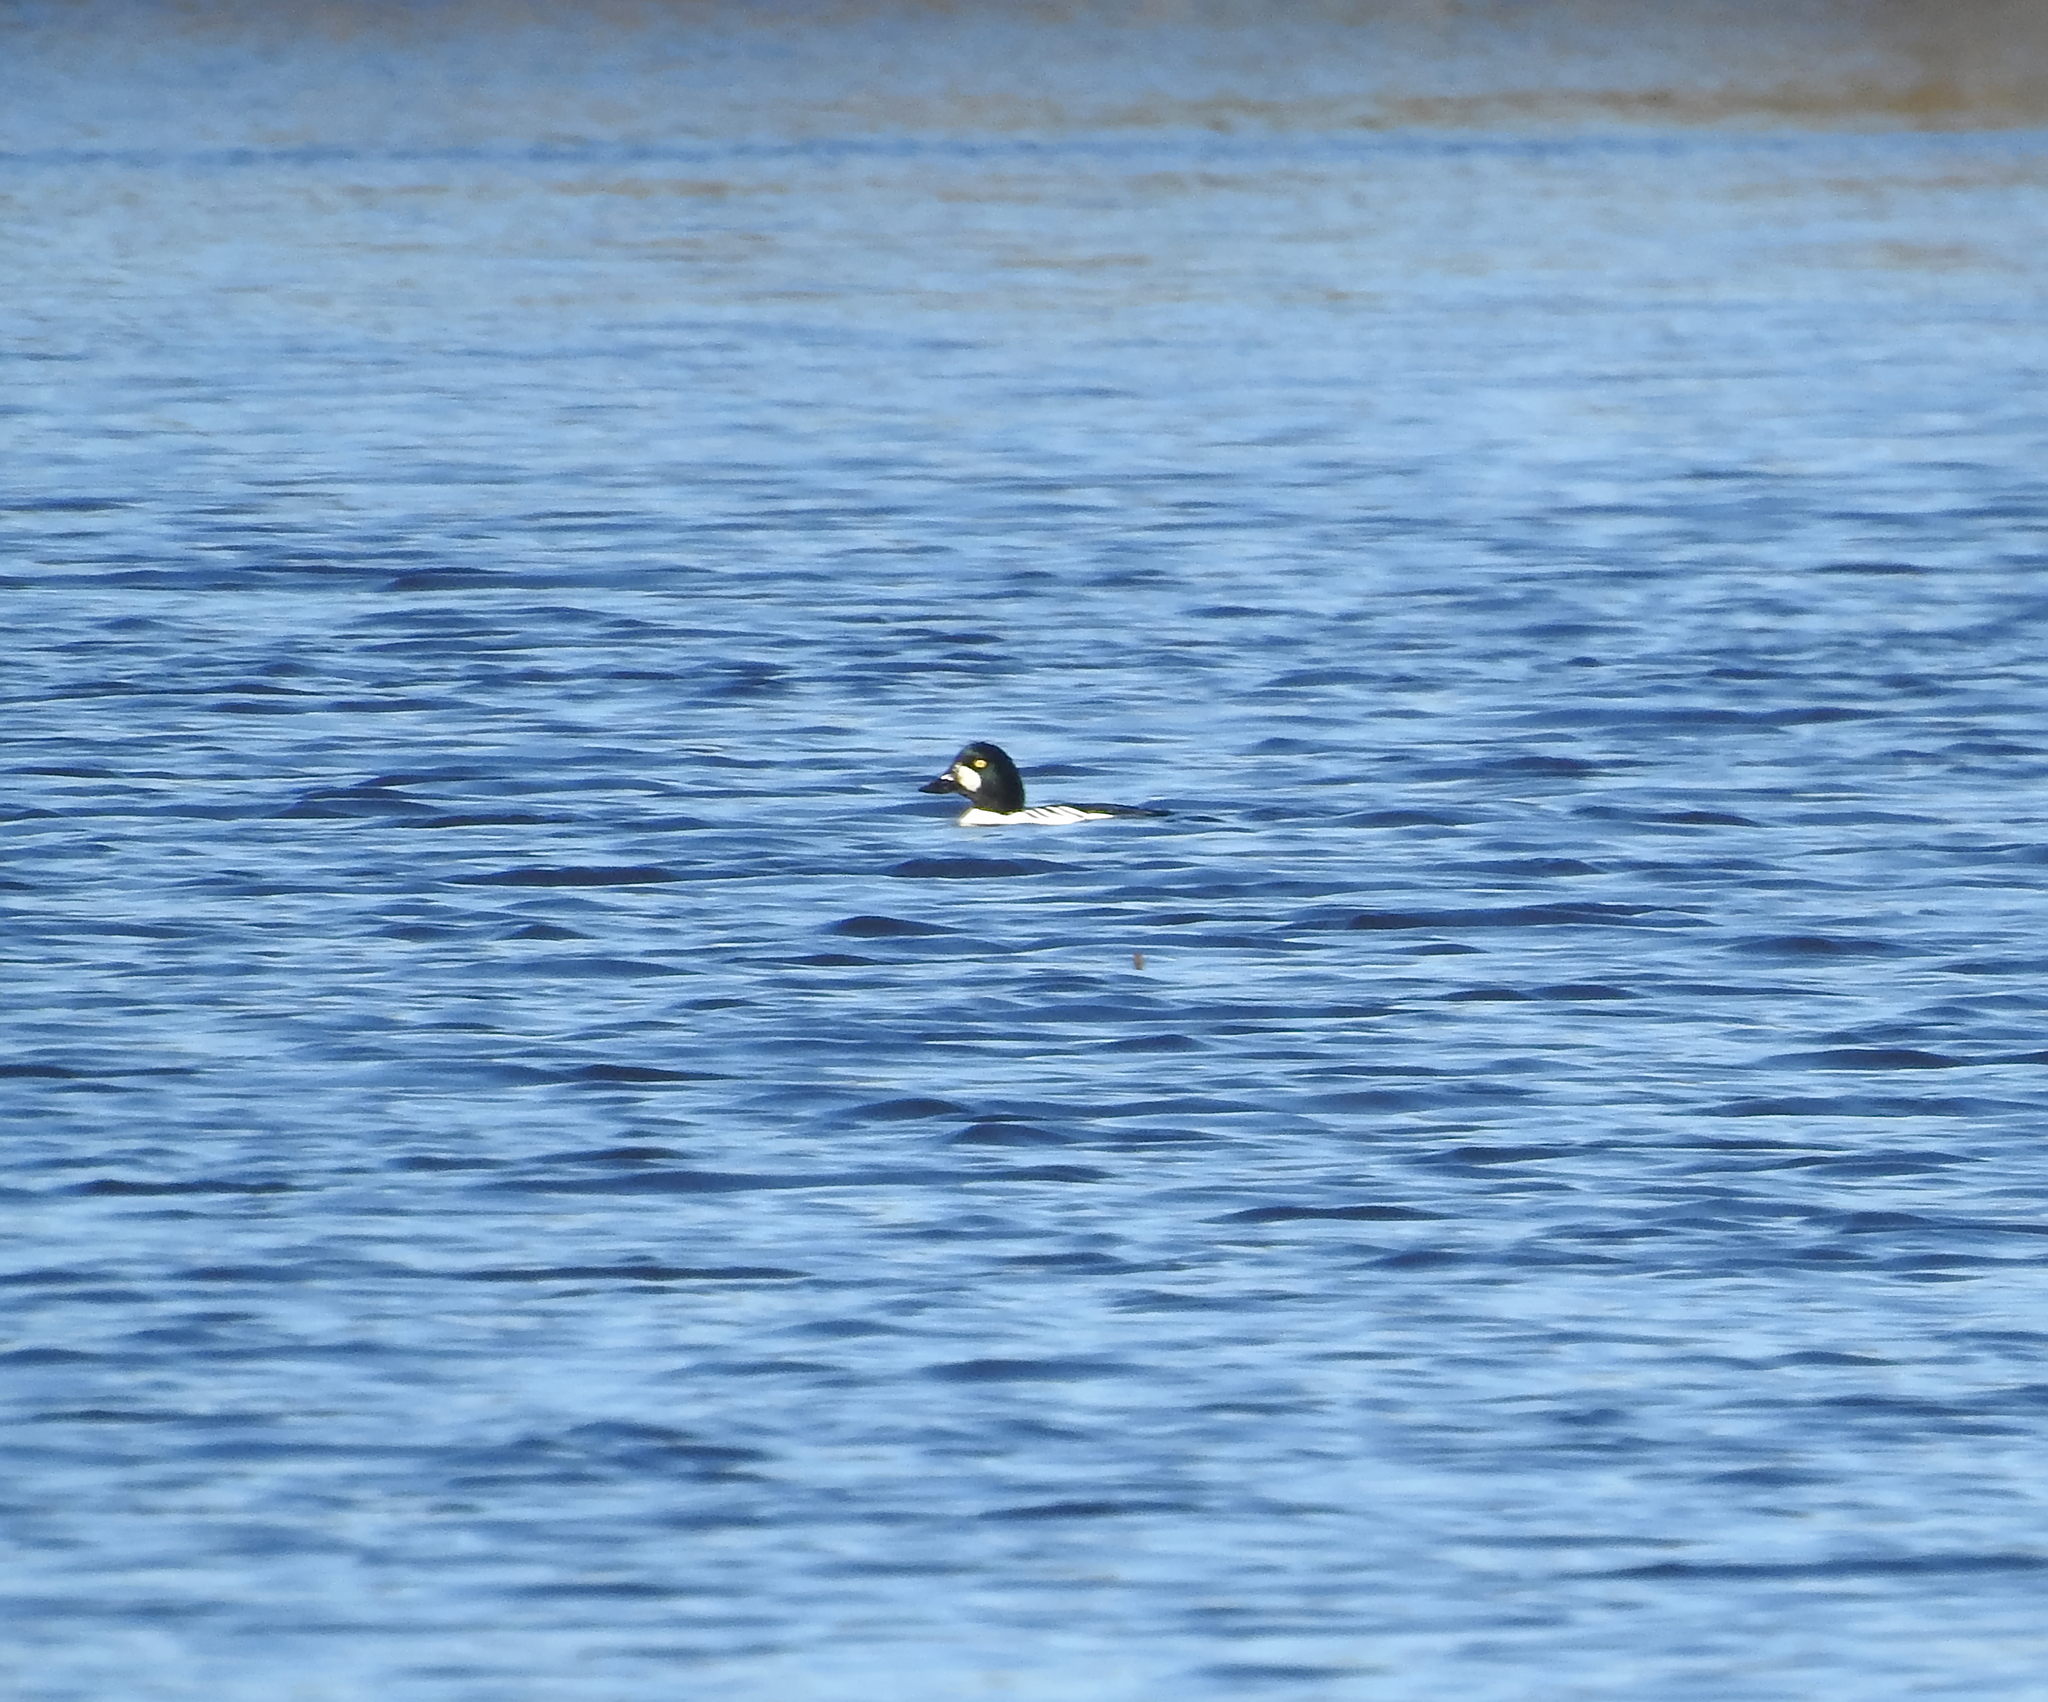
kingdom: Animalia
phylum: Chordata
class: Aves
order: Anseriformes
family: Anatidae
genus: Bucephala
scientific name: Bucephala clangula
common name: Common goldeneye
